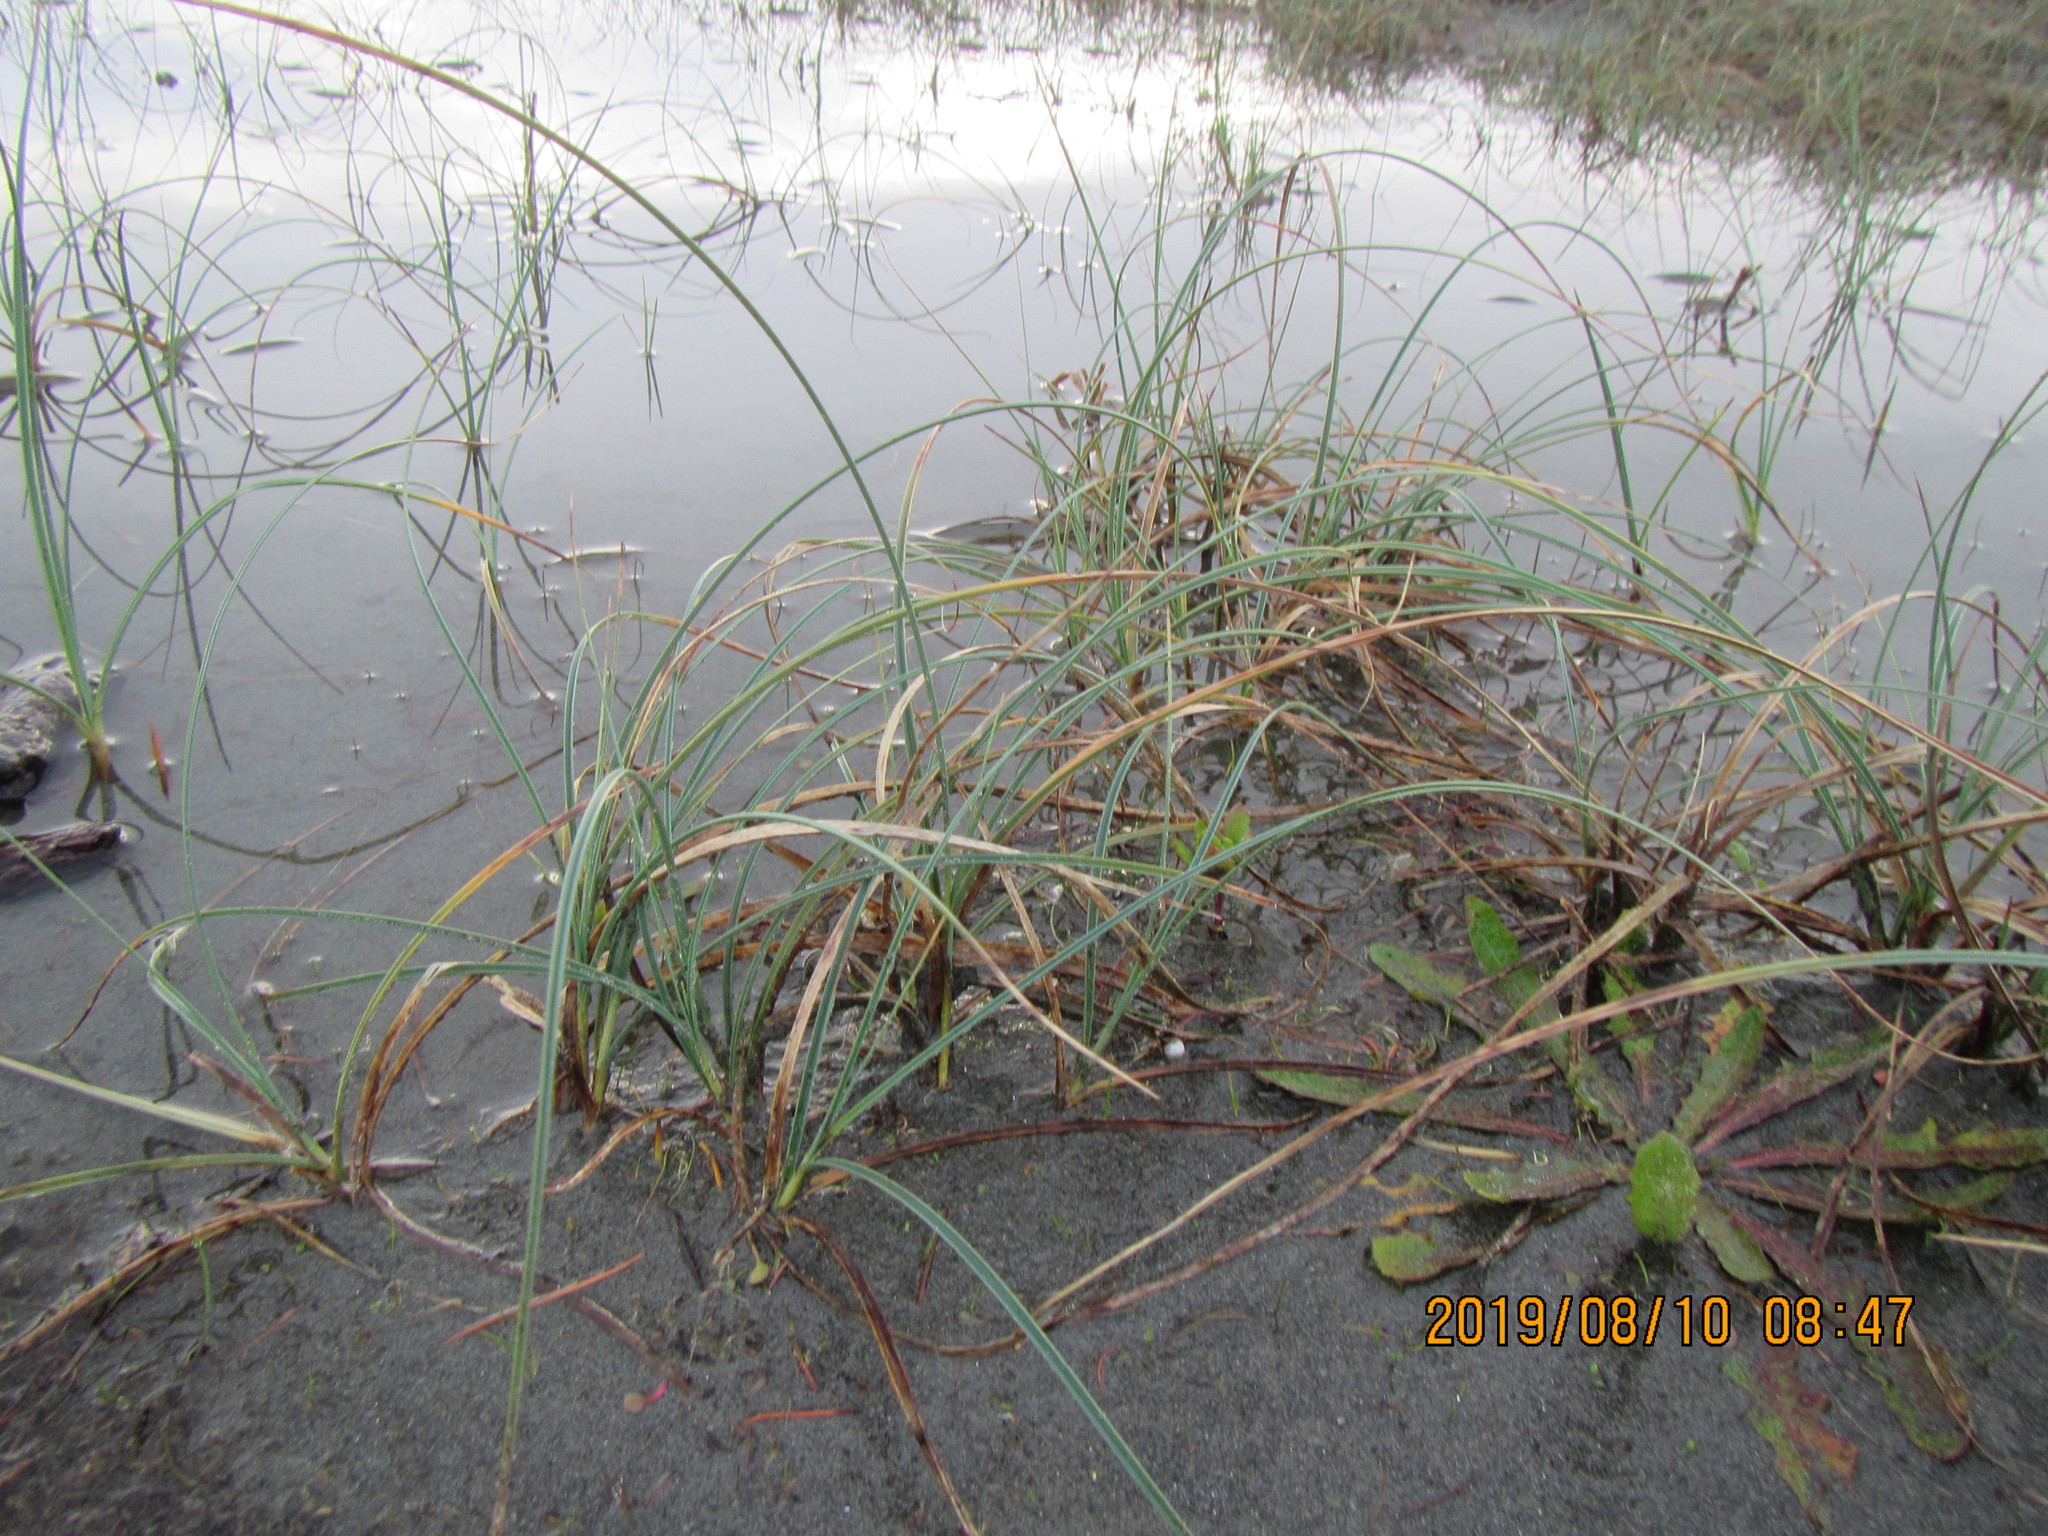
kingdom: Plantae
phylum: Tracheophyta
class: Liliopsida
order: Poales
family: Cyperaceae
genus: Carex
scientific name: Carex pumila
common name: Dwarf sedge
